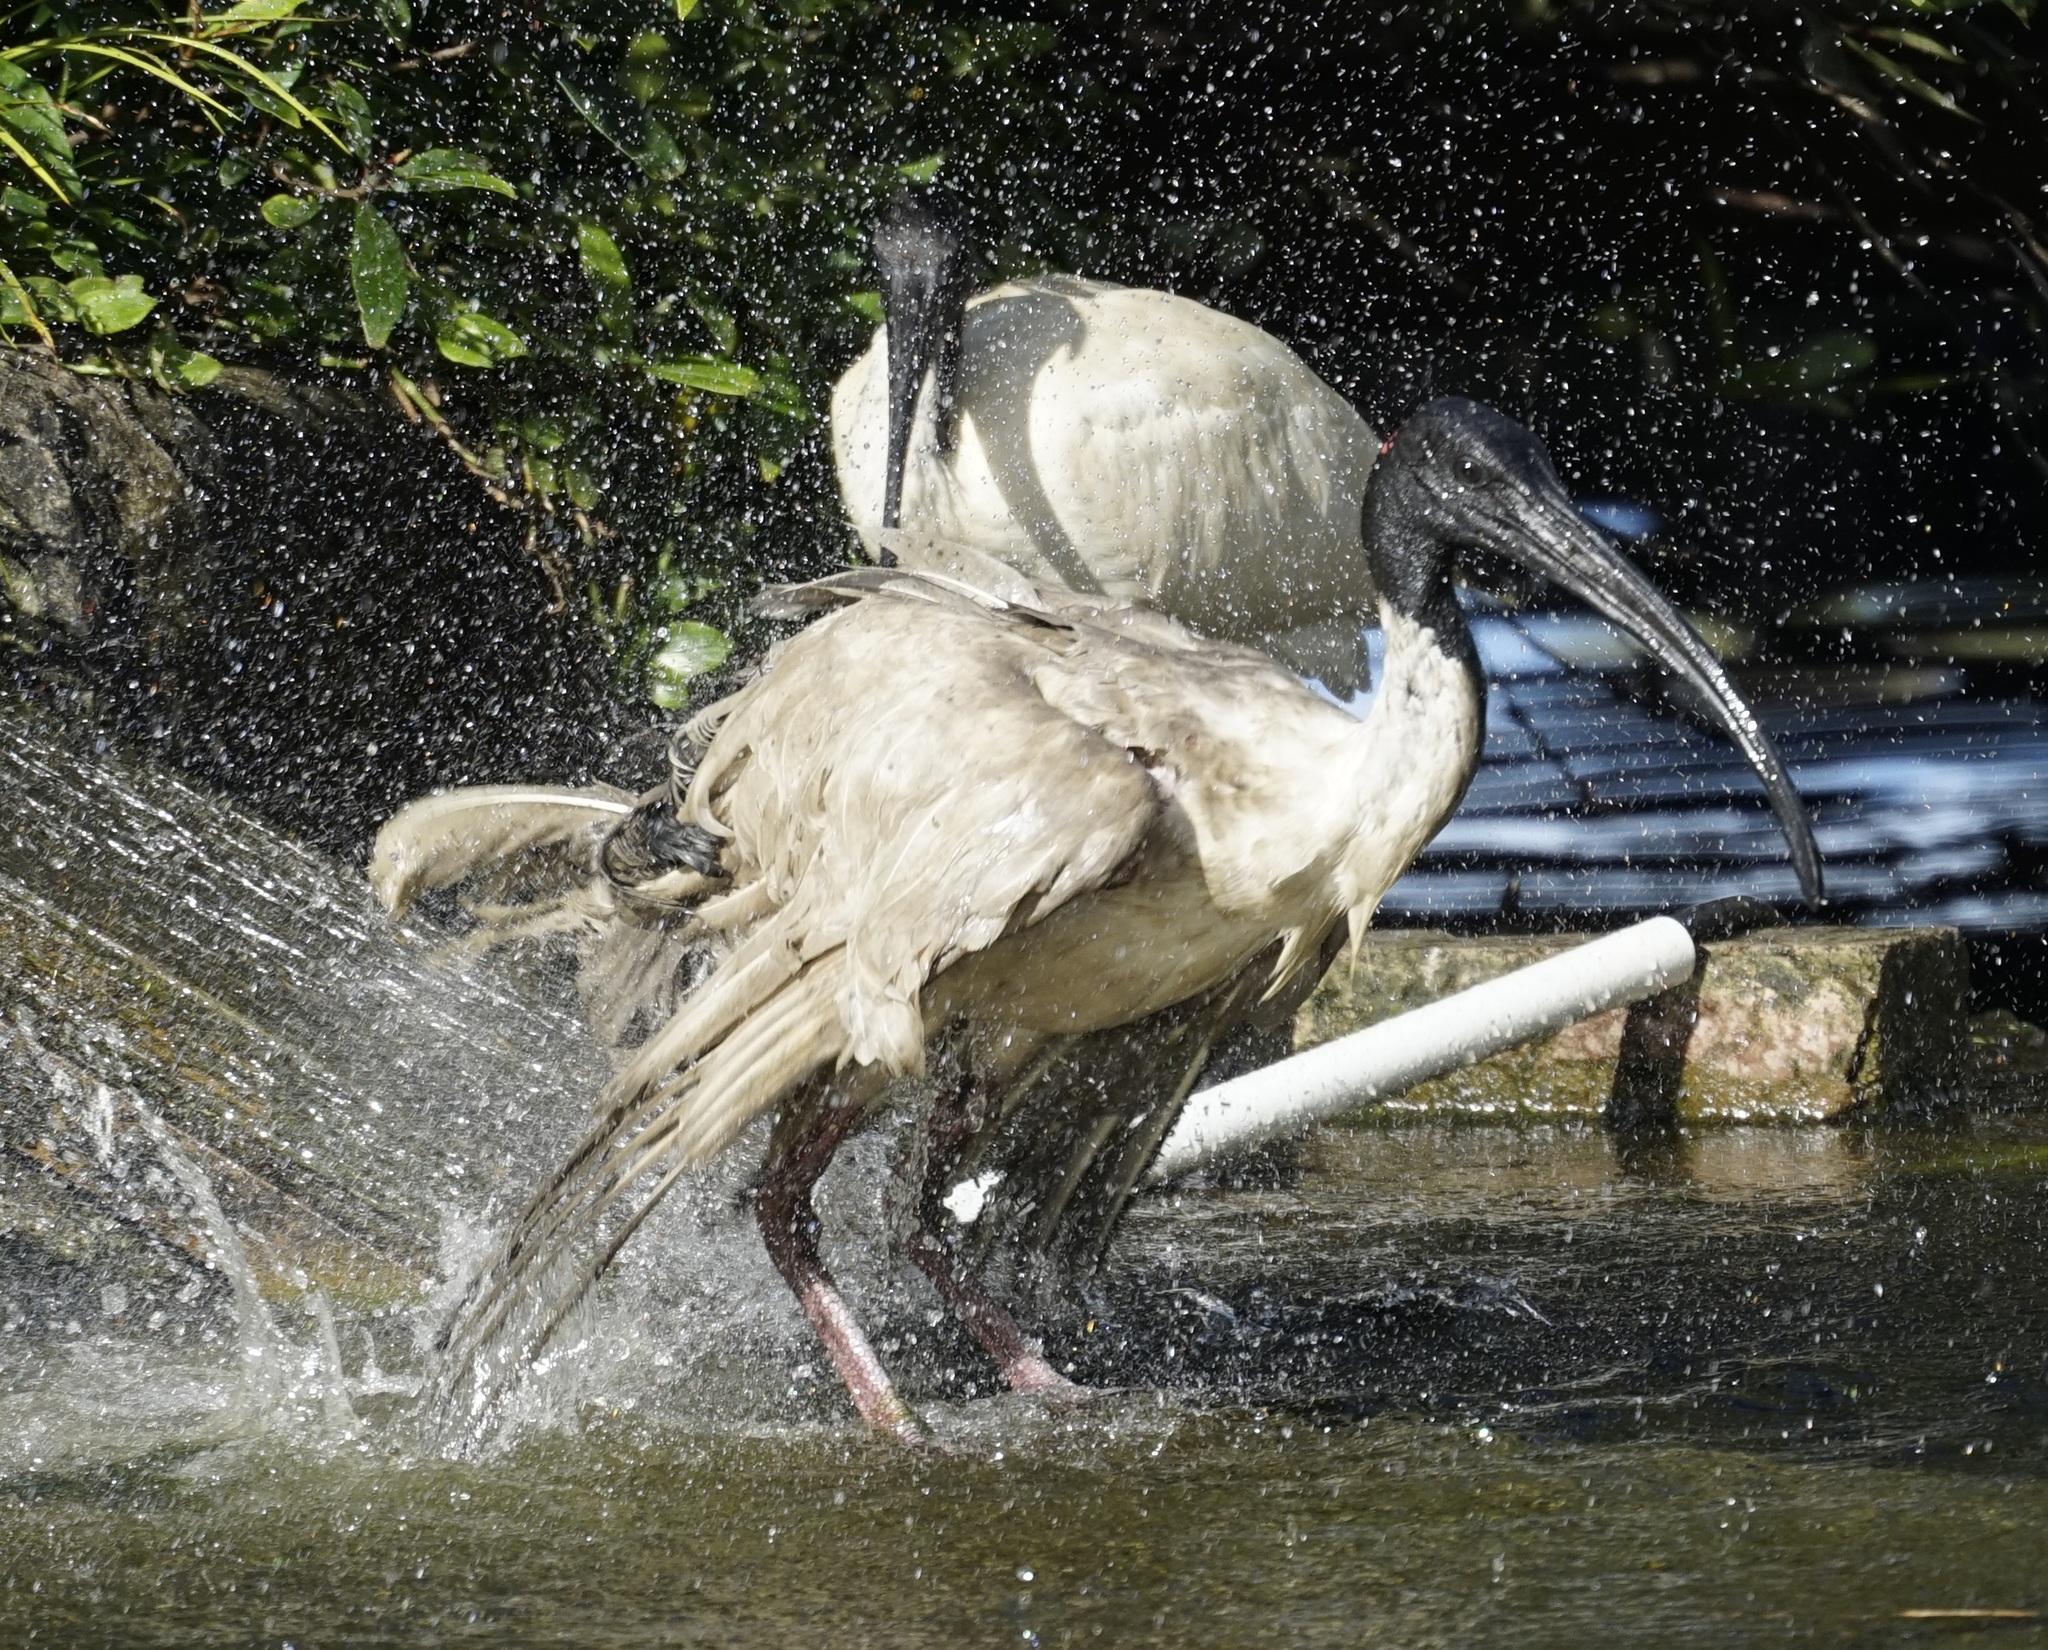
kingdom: Animalia
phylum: Chordata
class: Aves
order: Pelecaniformes
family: Threskiornithidae
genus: Threskiornis
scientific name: Threskiornis molucca
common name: Australian white ibis
